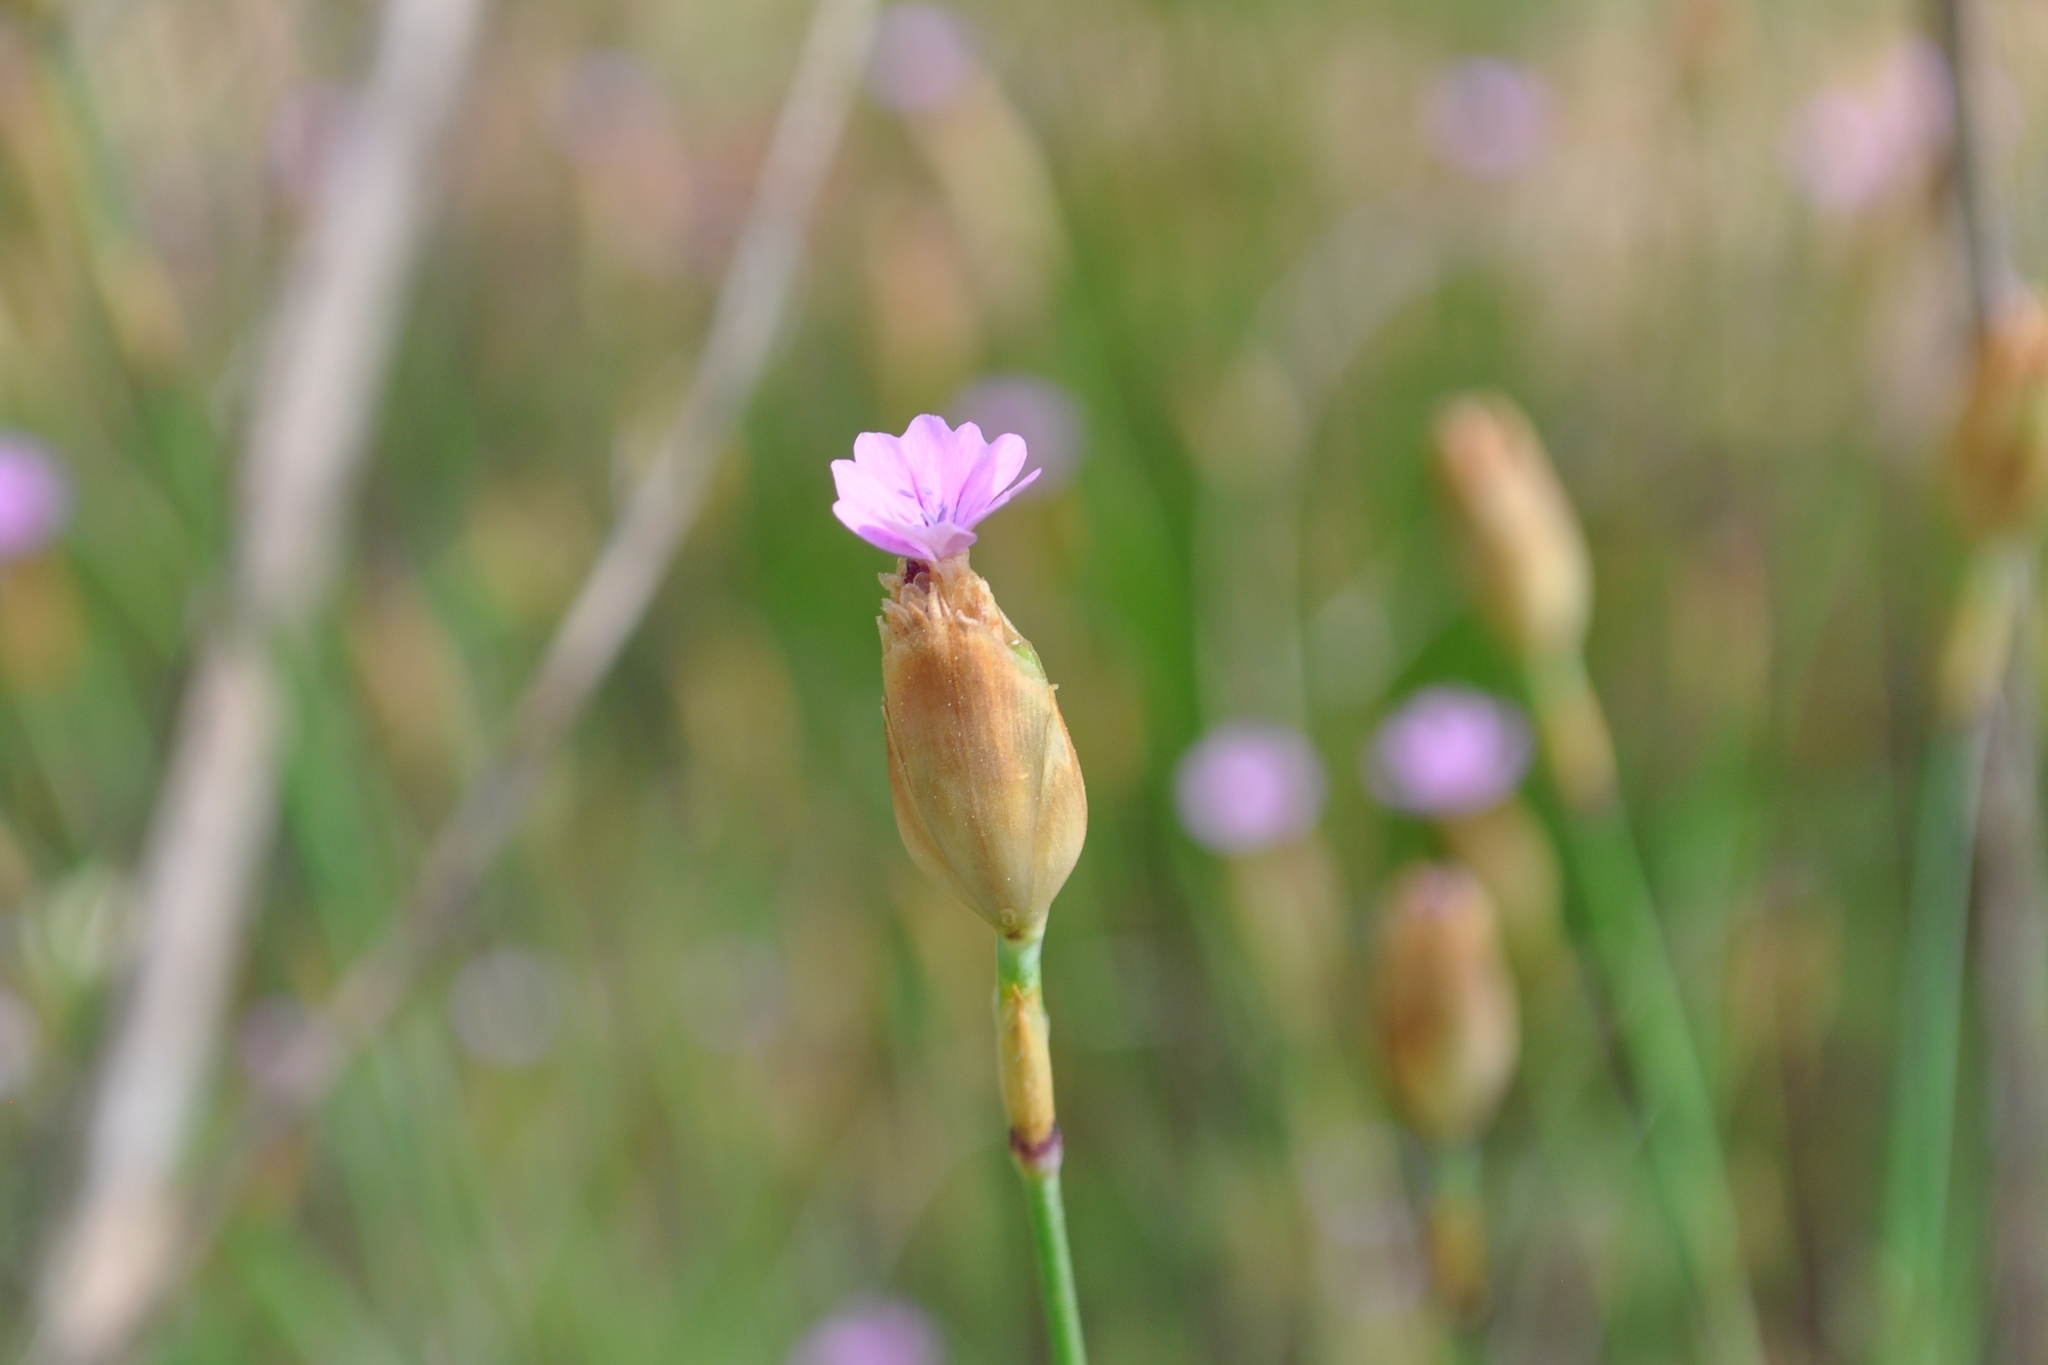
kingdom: Plantae
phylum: Tracheophyta
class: Magnoliopsida
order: Caryophyllales
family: Caryophyllaceae
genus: Petrorhagia
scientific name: Petrorhagia prolifera
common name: Proliferous pink
